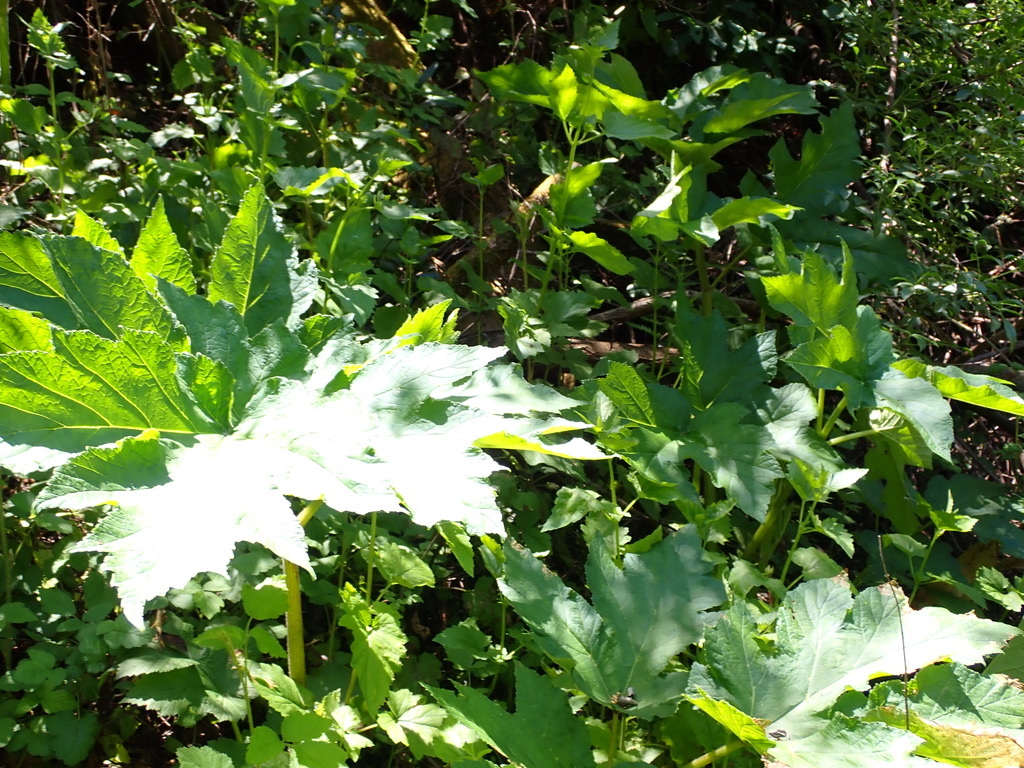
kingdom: Plantae
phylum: Tracheophyta
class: Magnoliopsida
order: Apiales
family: Apiaceae
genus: Heracleum
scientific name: Heracleum maximum
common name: American cow parsnip
